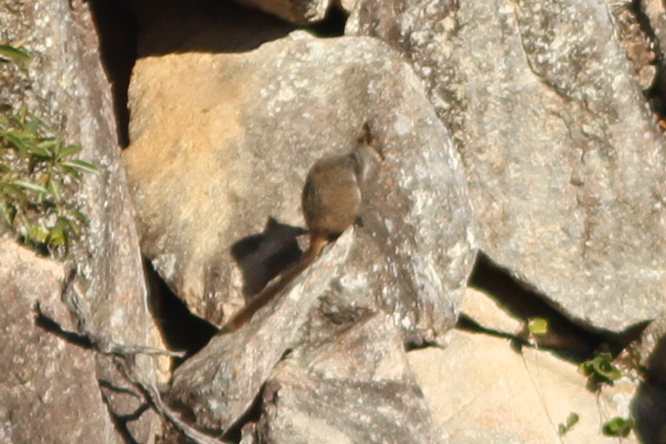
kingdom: Animalia
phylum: Chordata
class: Mammalia
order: Diprotodontia
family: Macropodidae
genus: Petrogale
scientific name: Petrogale penicillata
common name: Brush-tailed rock-wallaby
